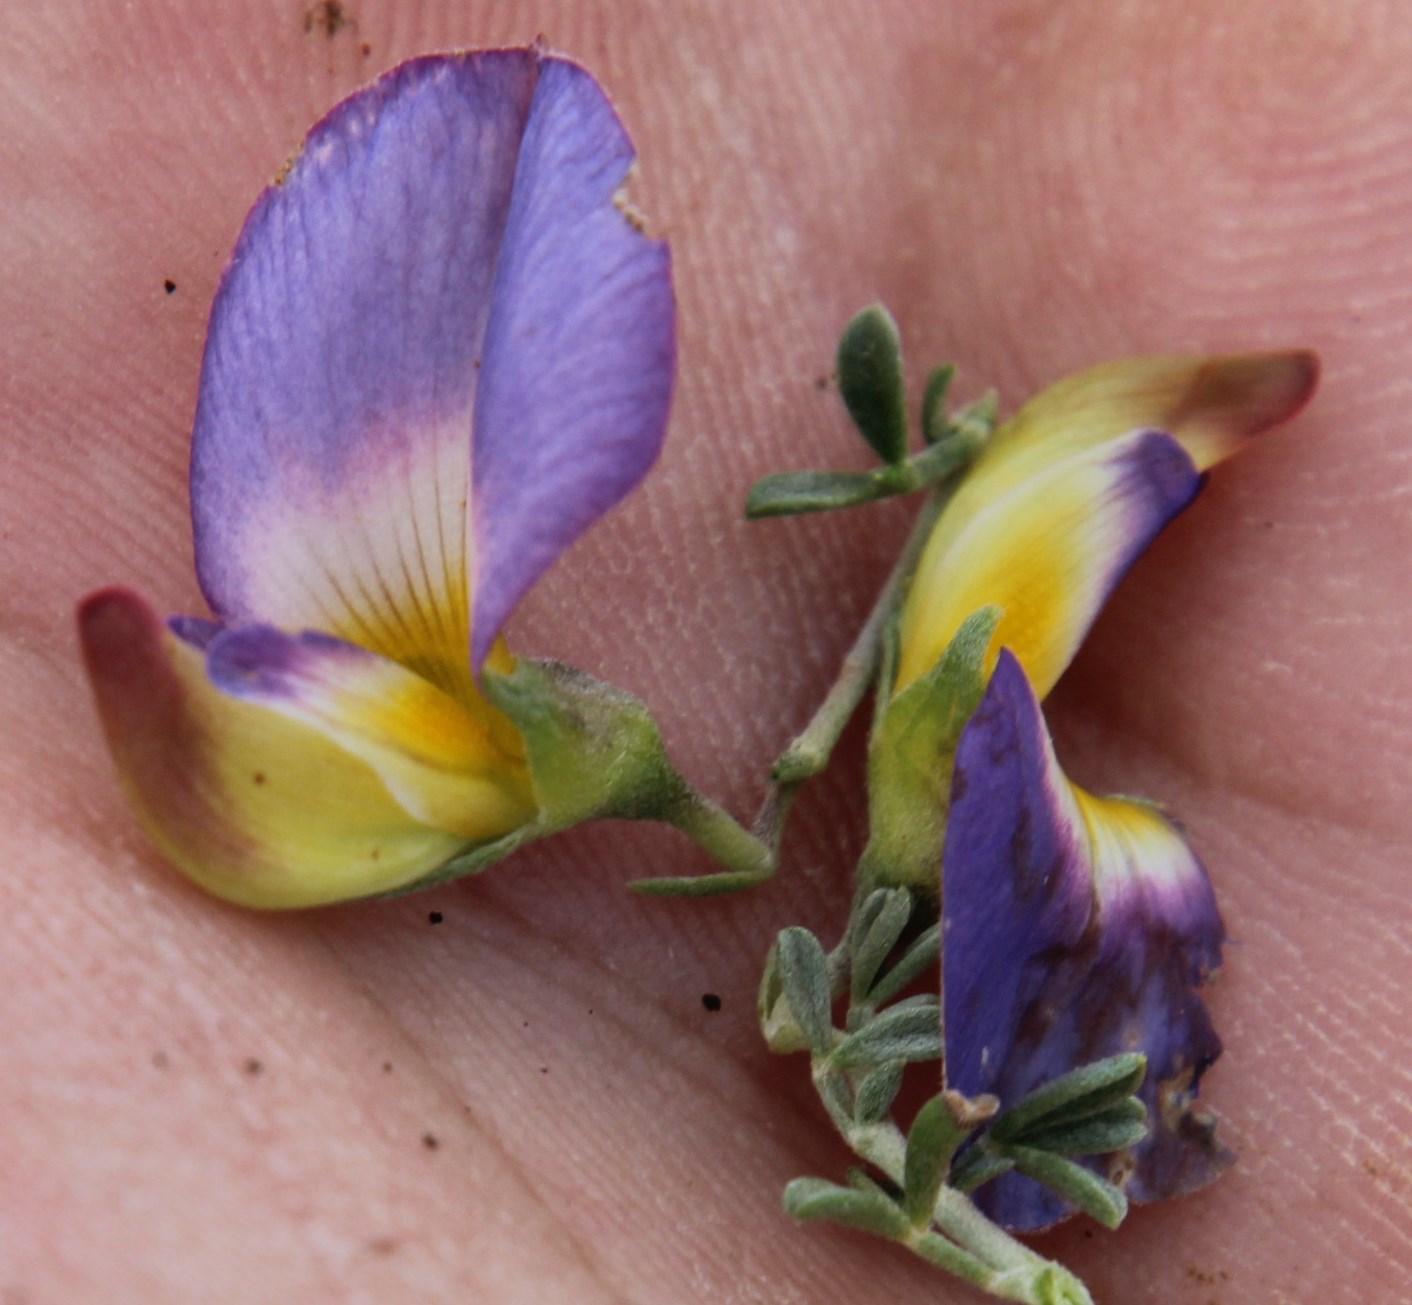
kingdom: Plantae
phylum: Tracheophyta
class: Magnoliopsida
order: Fabales
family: Fabaceae
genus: Lotononis
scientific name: Lotononis azureoides
